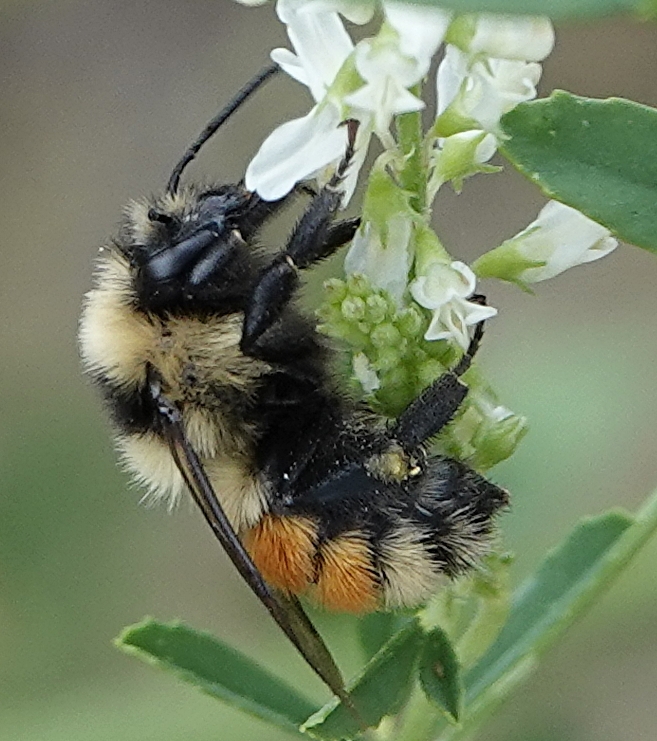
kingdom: Animalia
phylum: Arthropoda
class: Insecta
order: Hymenoptera
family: Apidae
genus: Bombus
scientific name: Bombus huntii
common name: Hunt bumble bee
